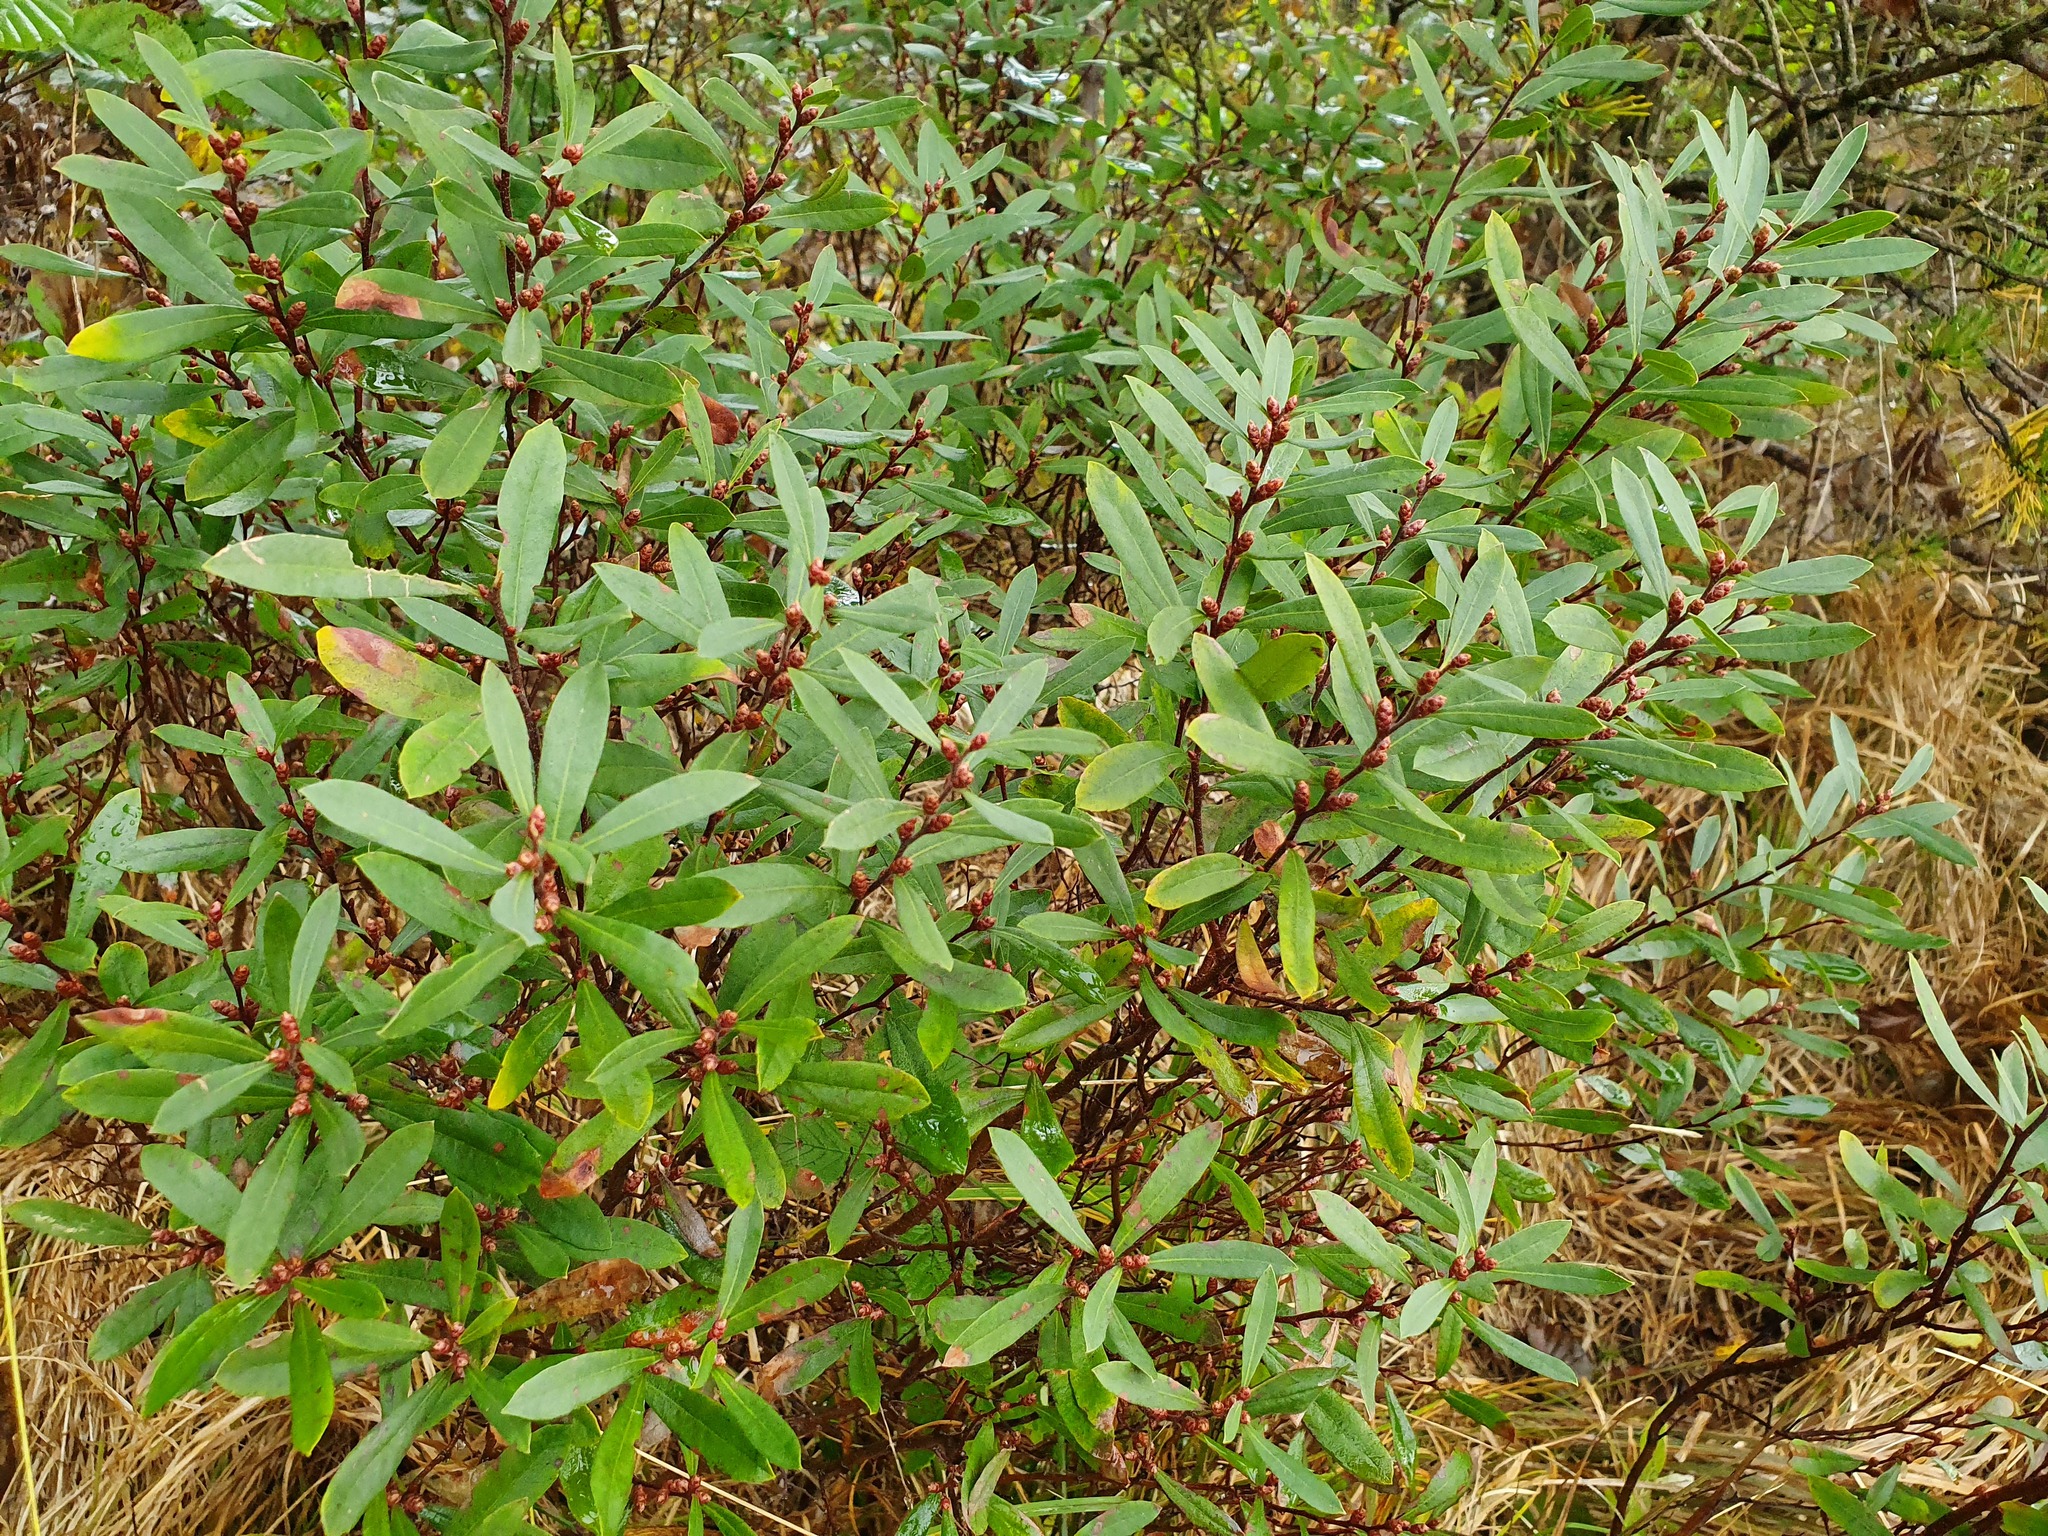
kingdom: Plantae
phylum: Tracheophyta
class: Magnoliopsida
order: Fagales
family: Myricaceae
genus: Myrica
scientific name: Myrica gale
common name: Sweet gale
